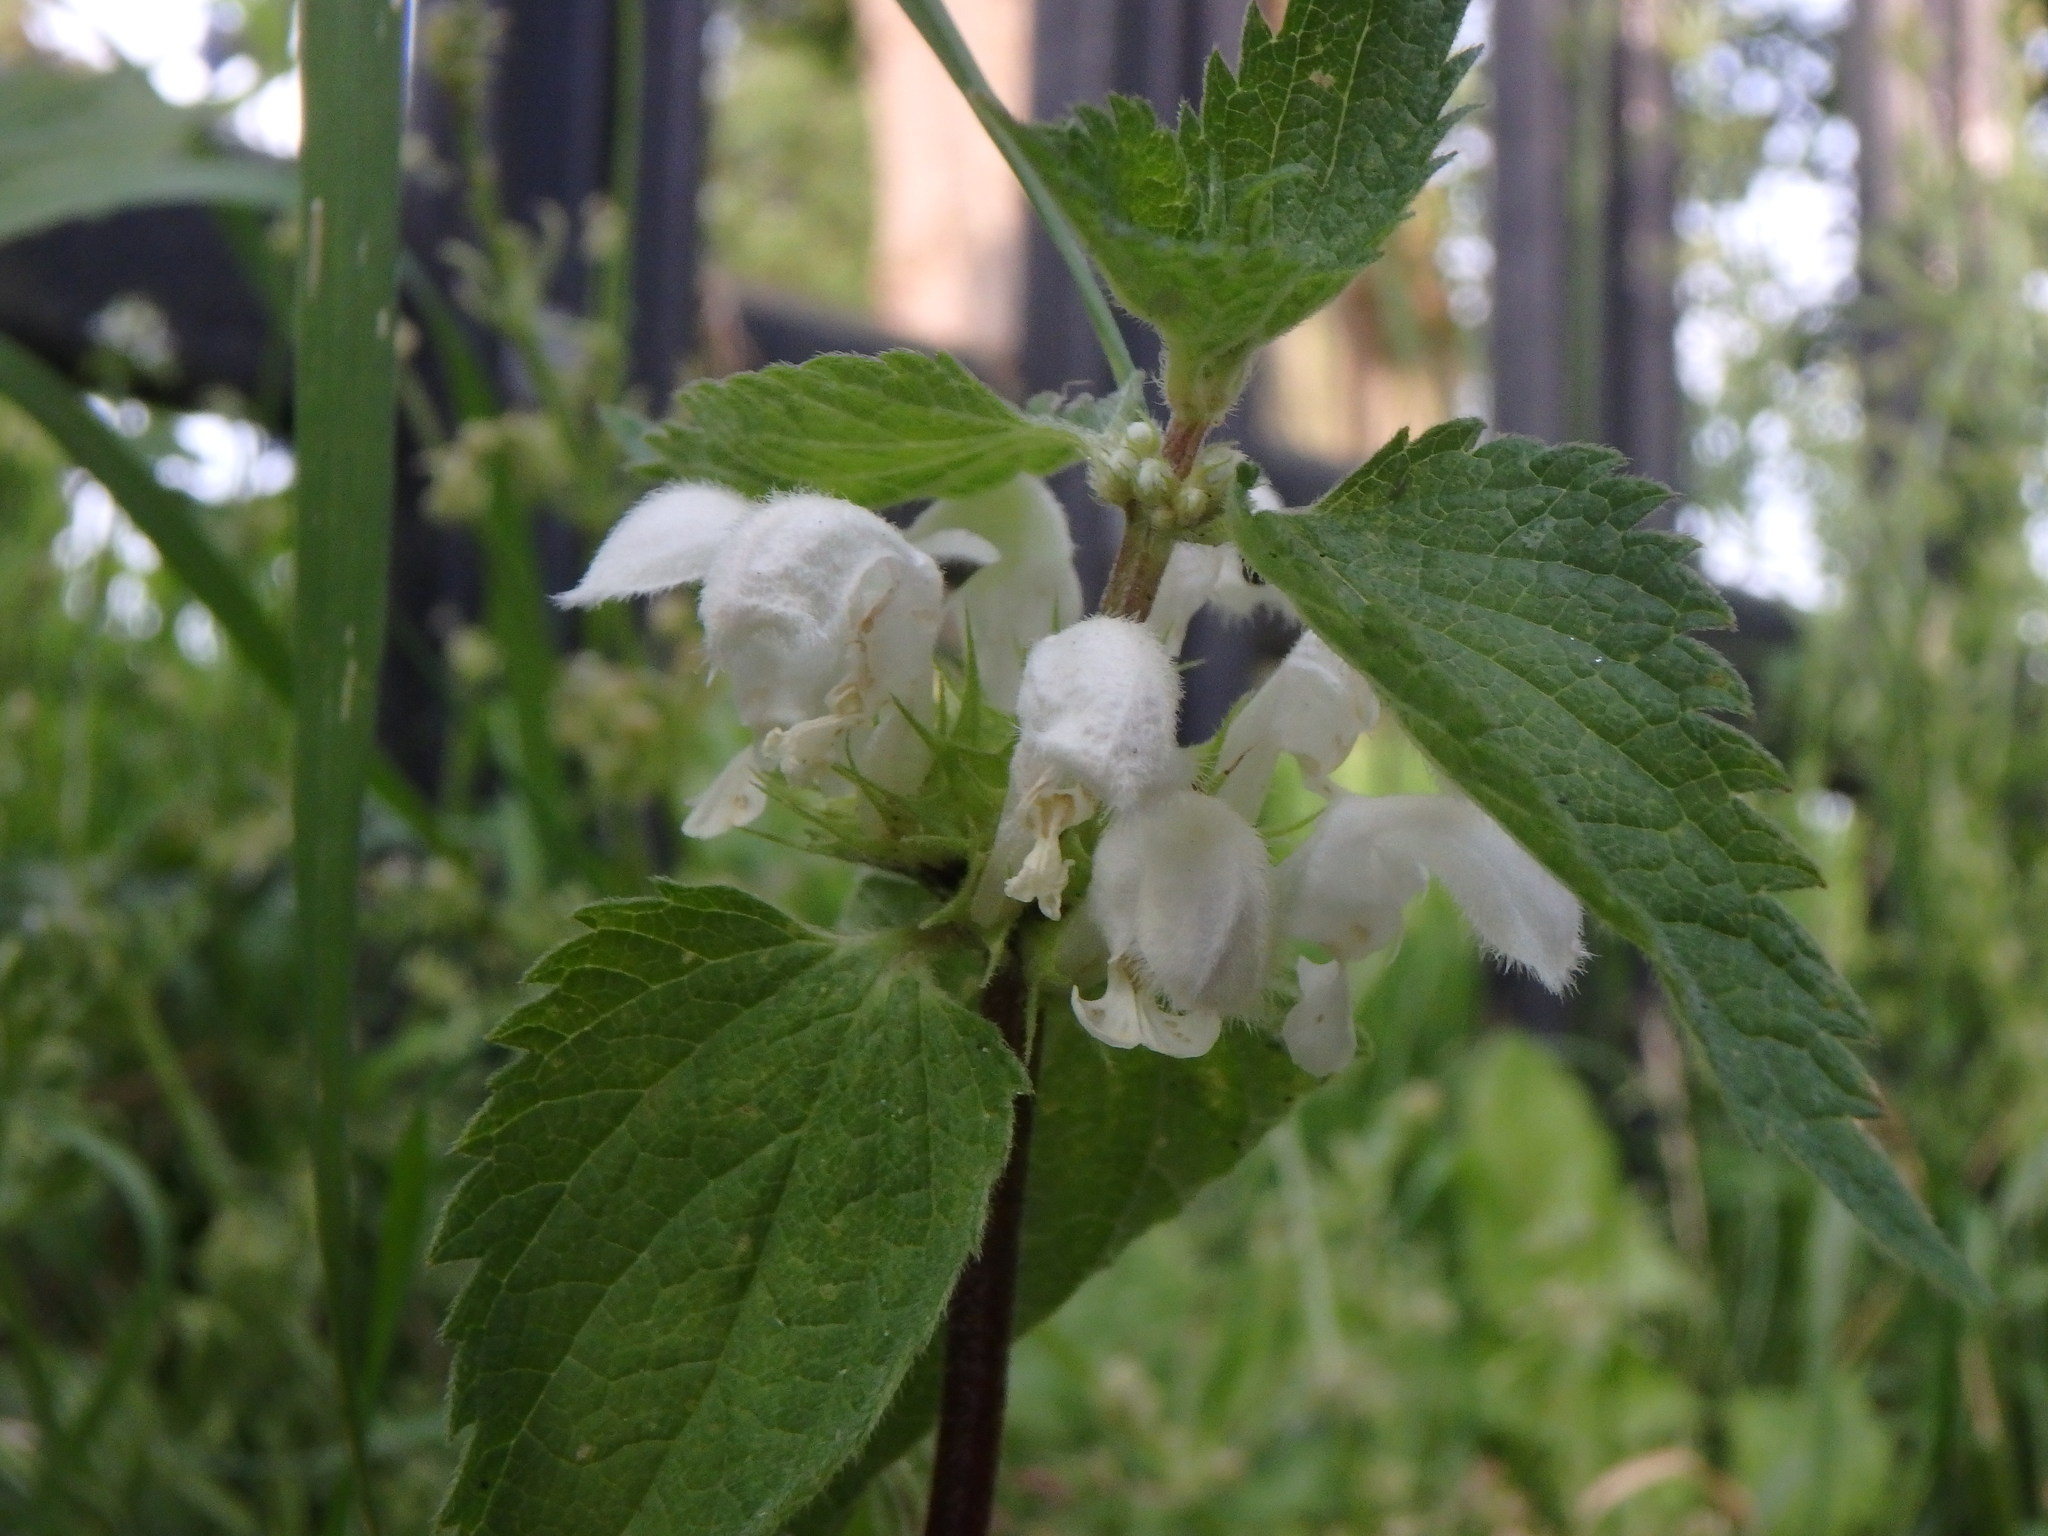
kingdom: Plantae
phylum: Tracheophyta
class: Magnoliopsida
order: Lamiales
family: Lamiaceae
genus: Lamium
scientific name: Lamium album
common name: White dead-nettle
